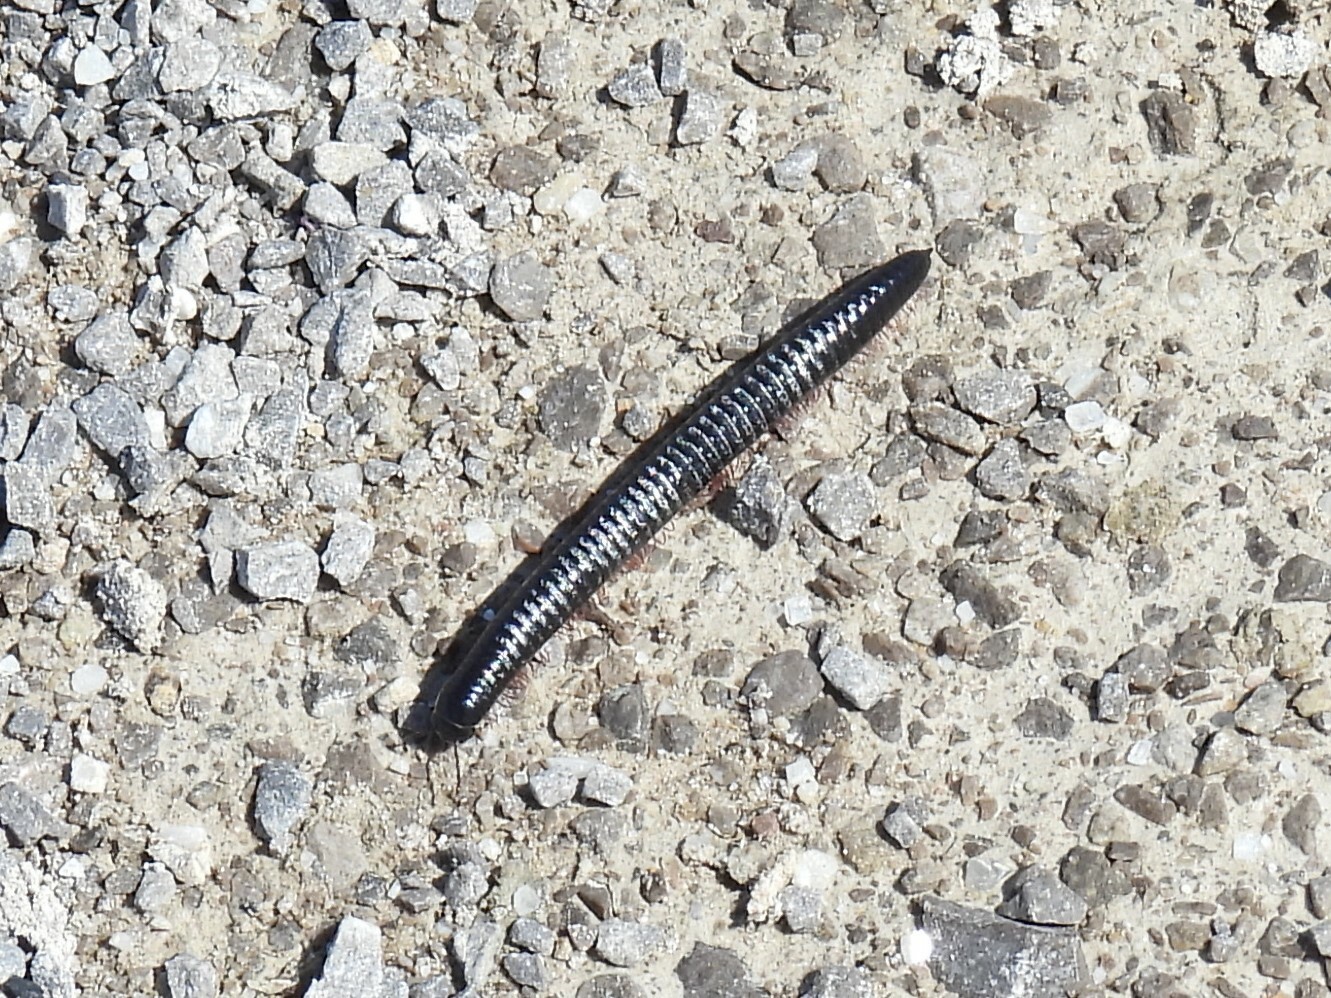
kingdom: Animalia
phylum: Arthropoda
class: Diplopoda
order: Julida
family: Julidae
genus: Ommatoiulus
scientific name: Ommatoiulus moreleti
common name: Portuguese millipede
